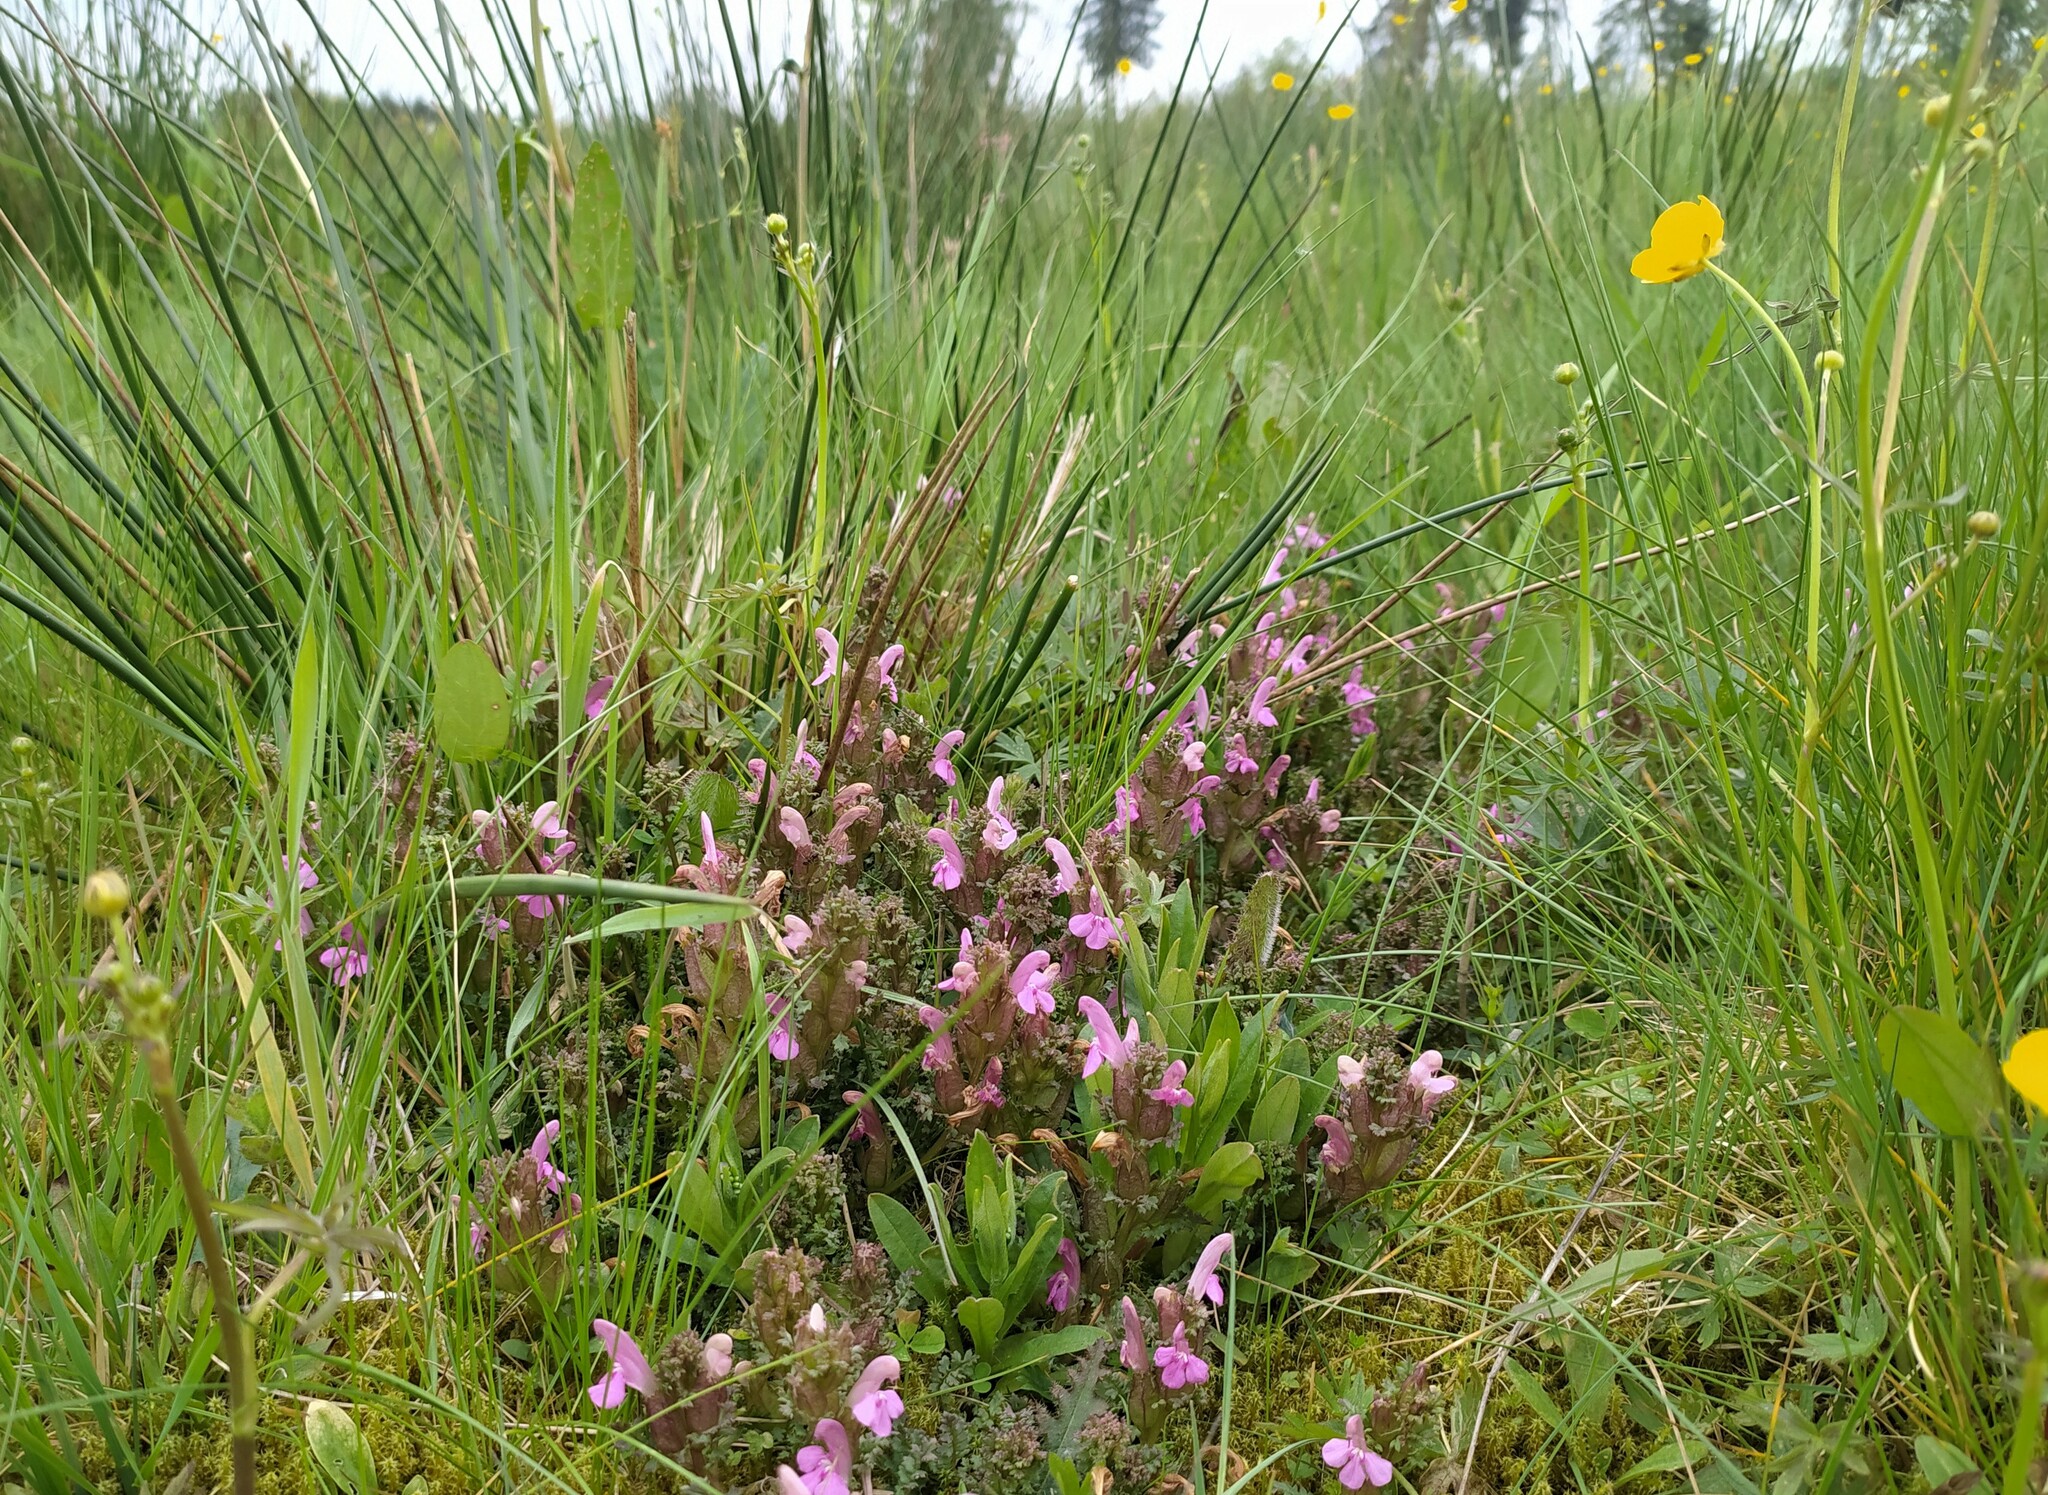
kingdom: Plantae
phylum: Tracheophyta
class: Magnoliopsida
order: Lamiales
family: Orobanchaceae
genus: Pedicularis
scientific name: Pedicularis sylvatica
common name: Lousewort
